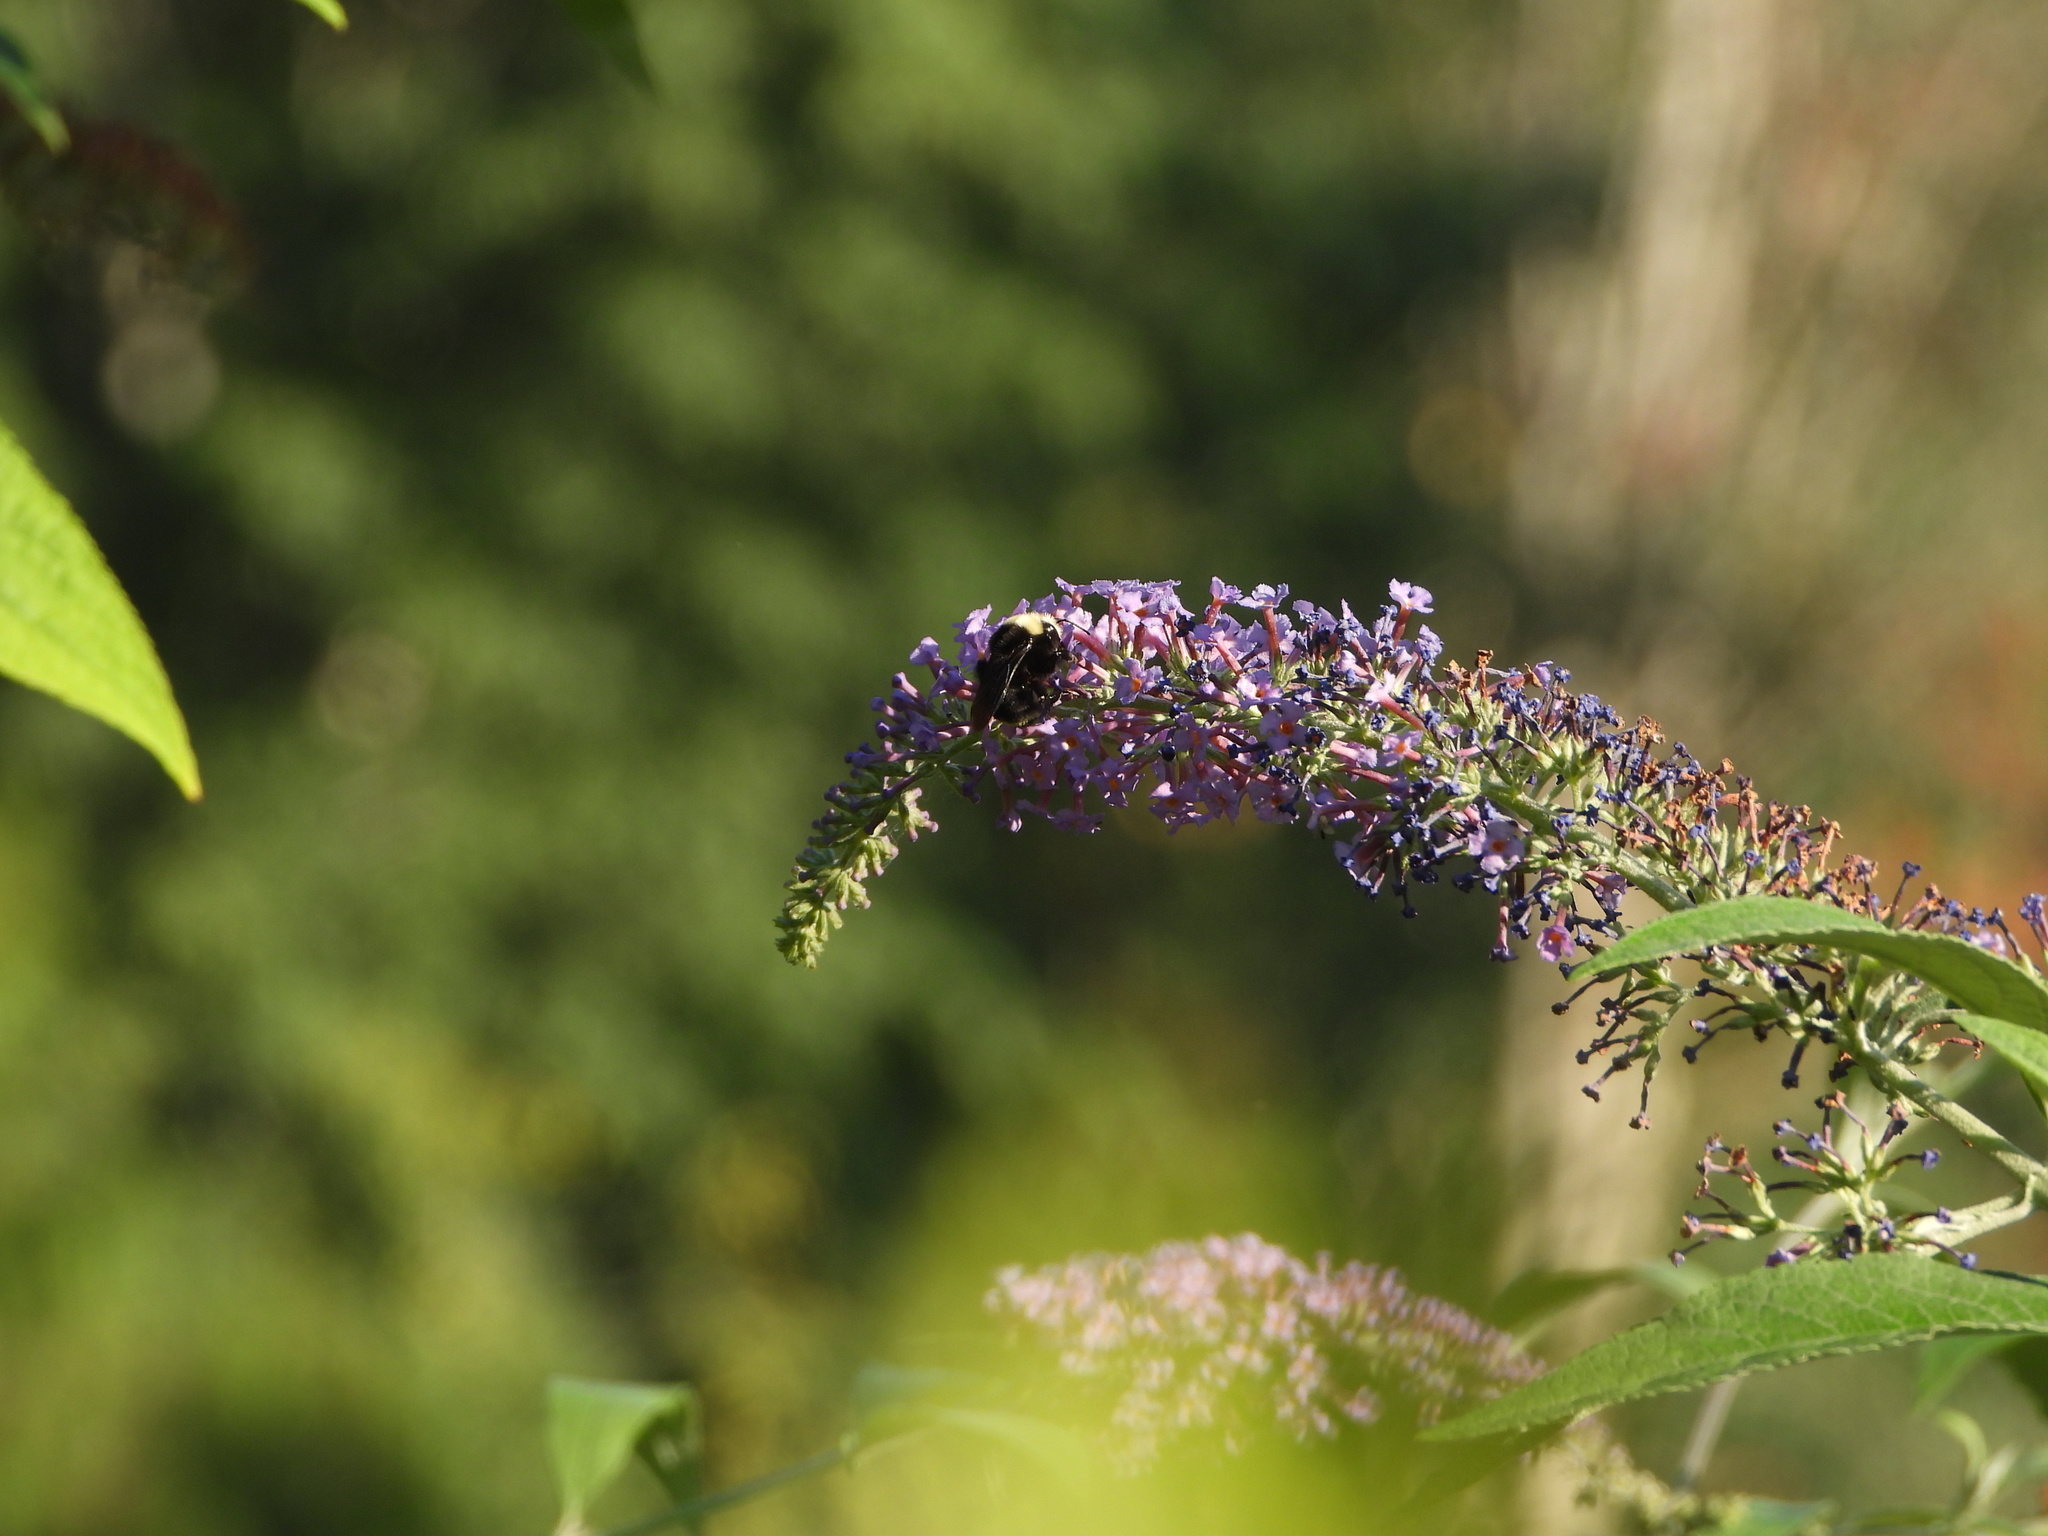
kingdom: Animalia
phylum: Arthropoda
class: Insecta
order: Hymenoptera
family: Apidae
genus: Bombus
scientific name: Bombus vosnesenskii
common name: Vosnesensky bumble bee
